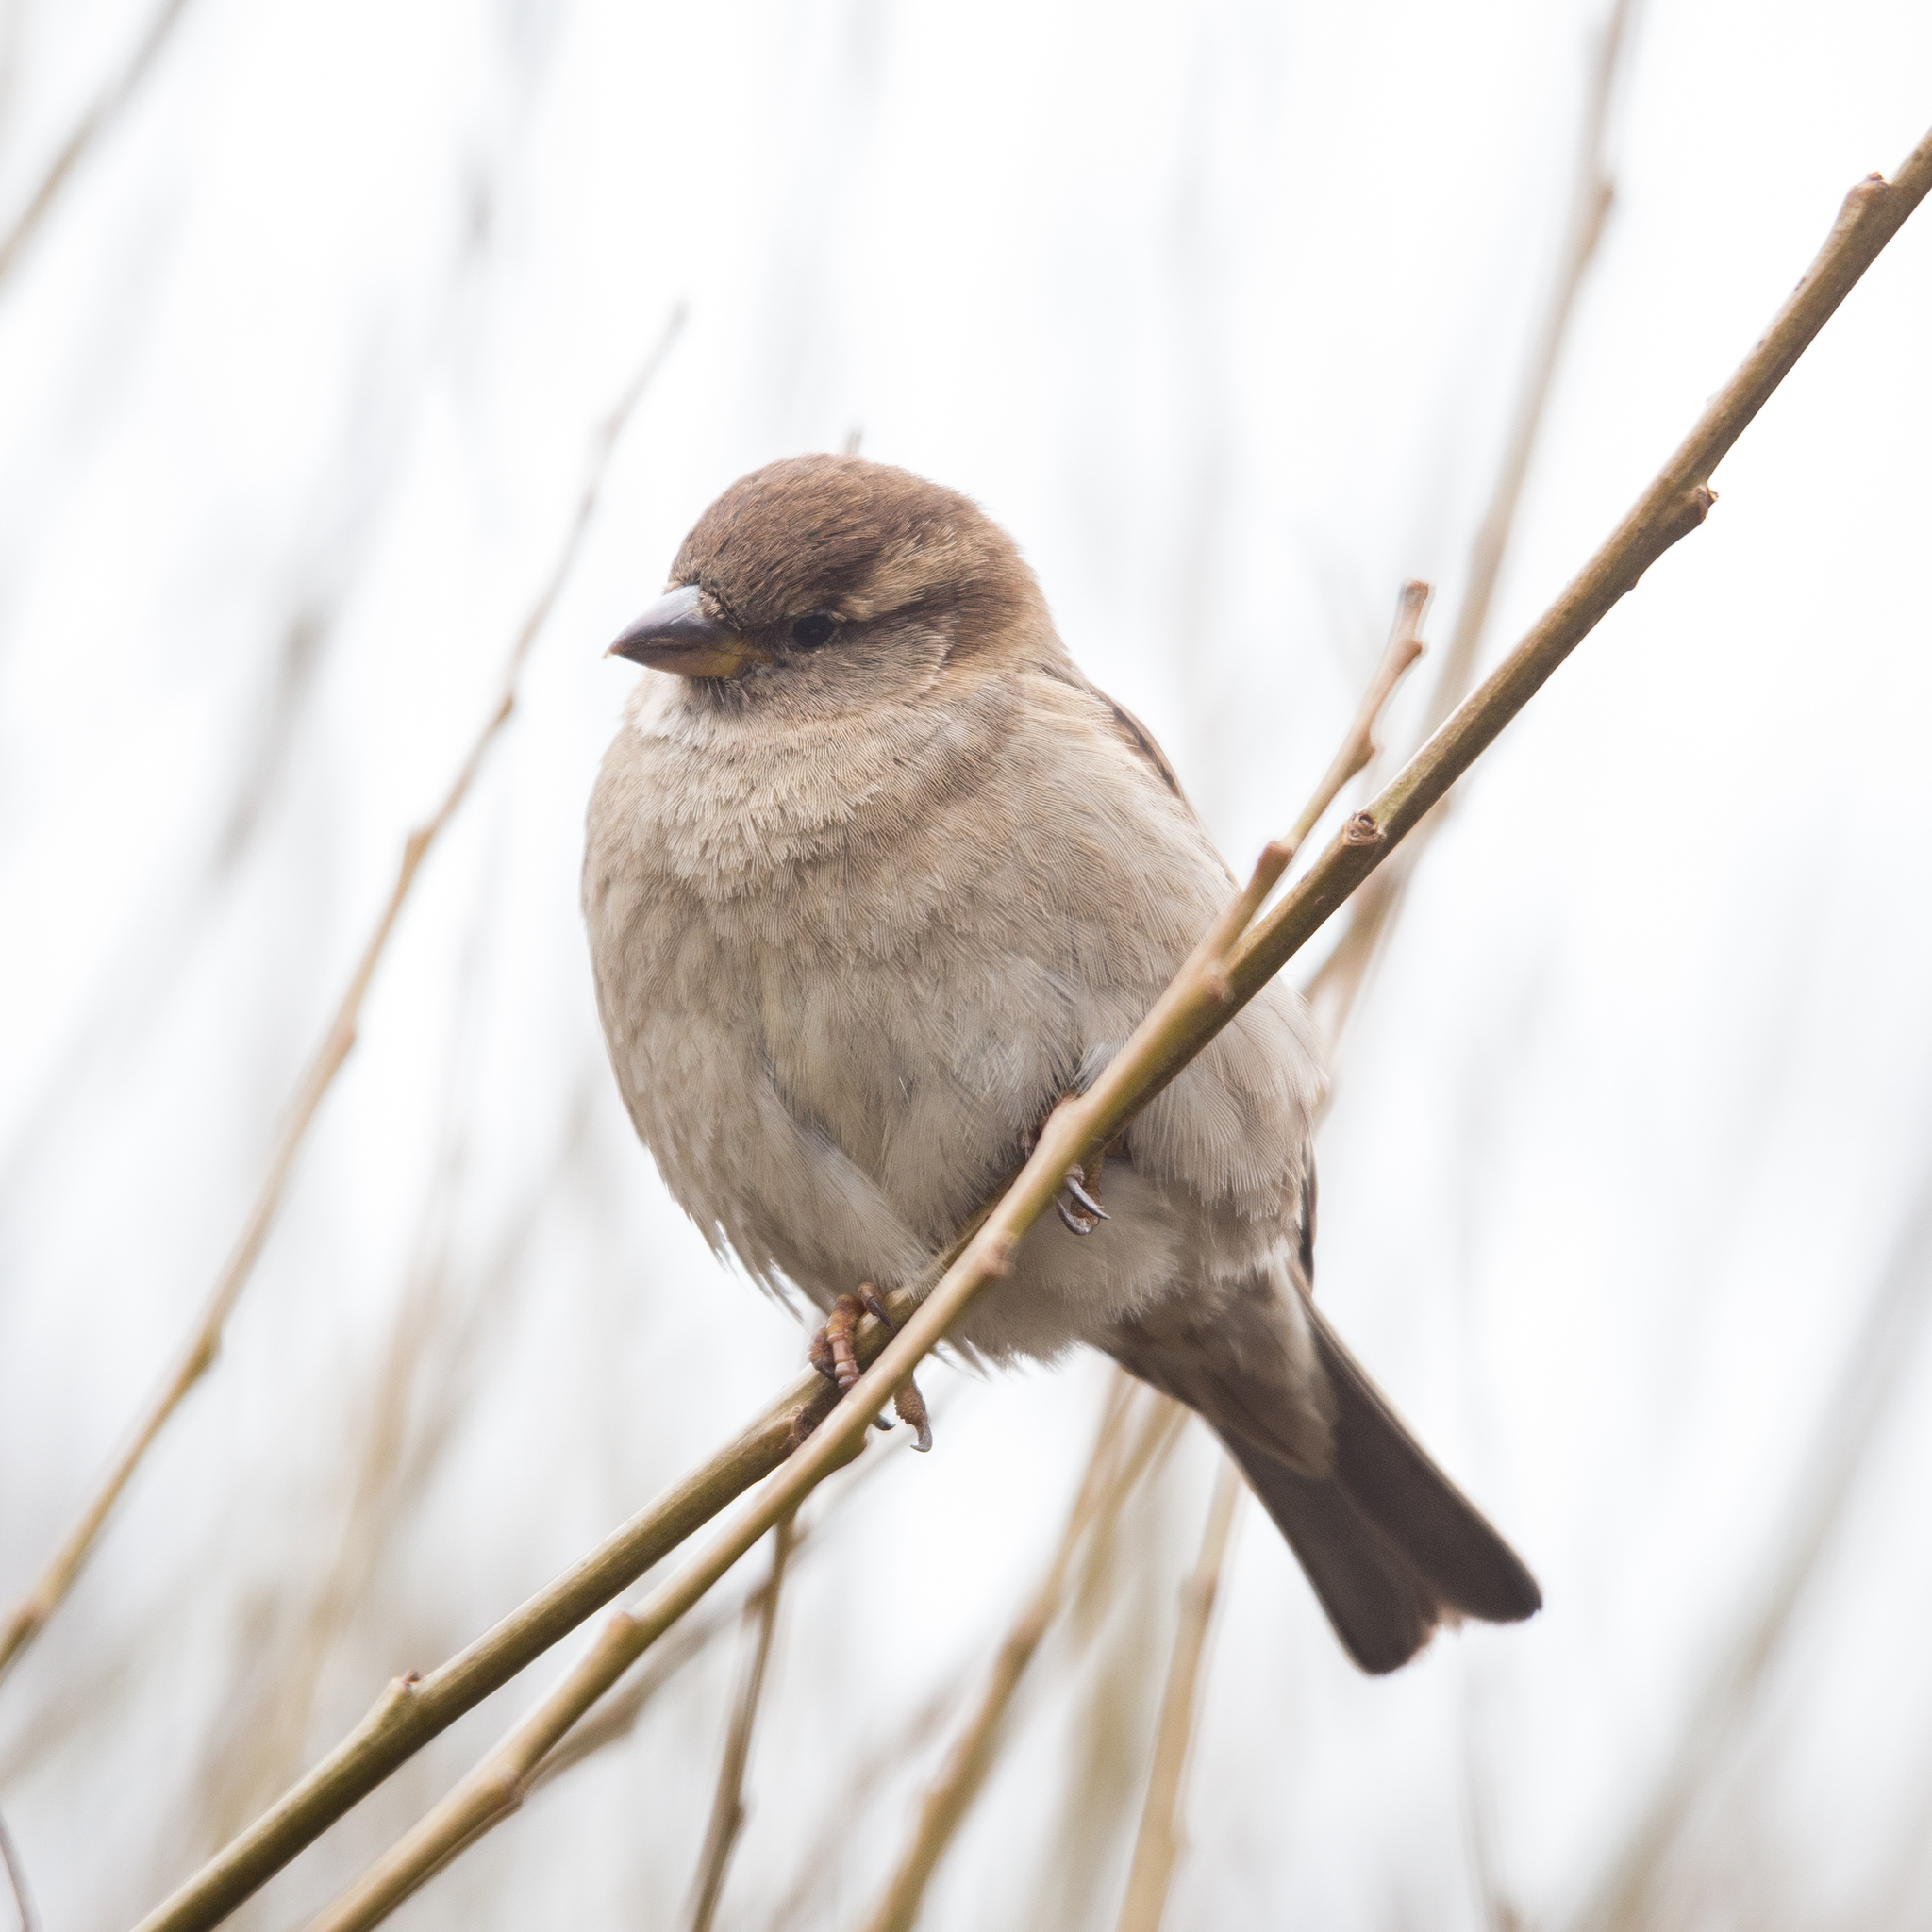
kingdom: Animalia
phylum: Chordata
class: Aves
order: Passeriformes
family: Passeridae
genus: Passer
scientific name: Passer domesticus
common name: House sparrow
